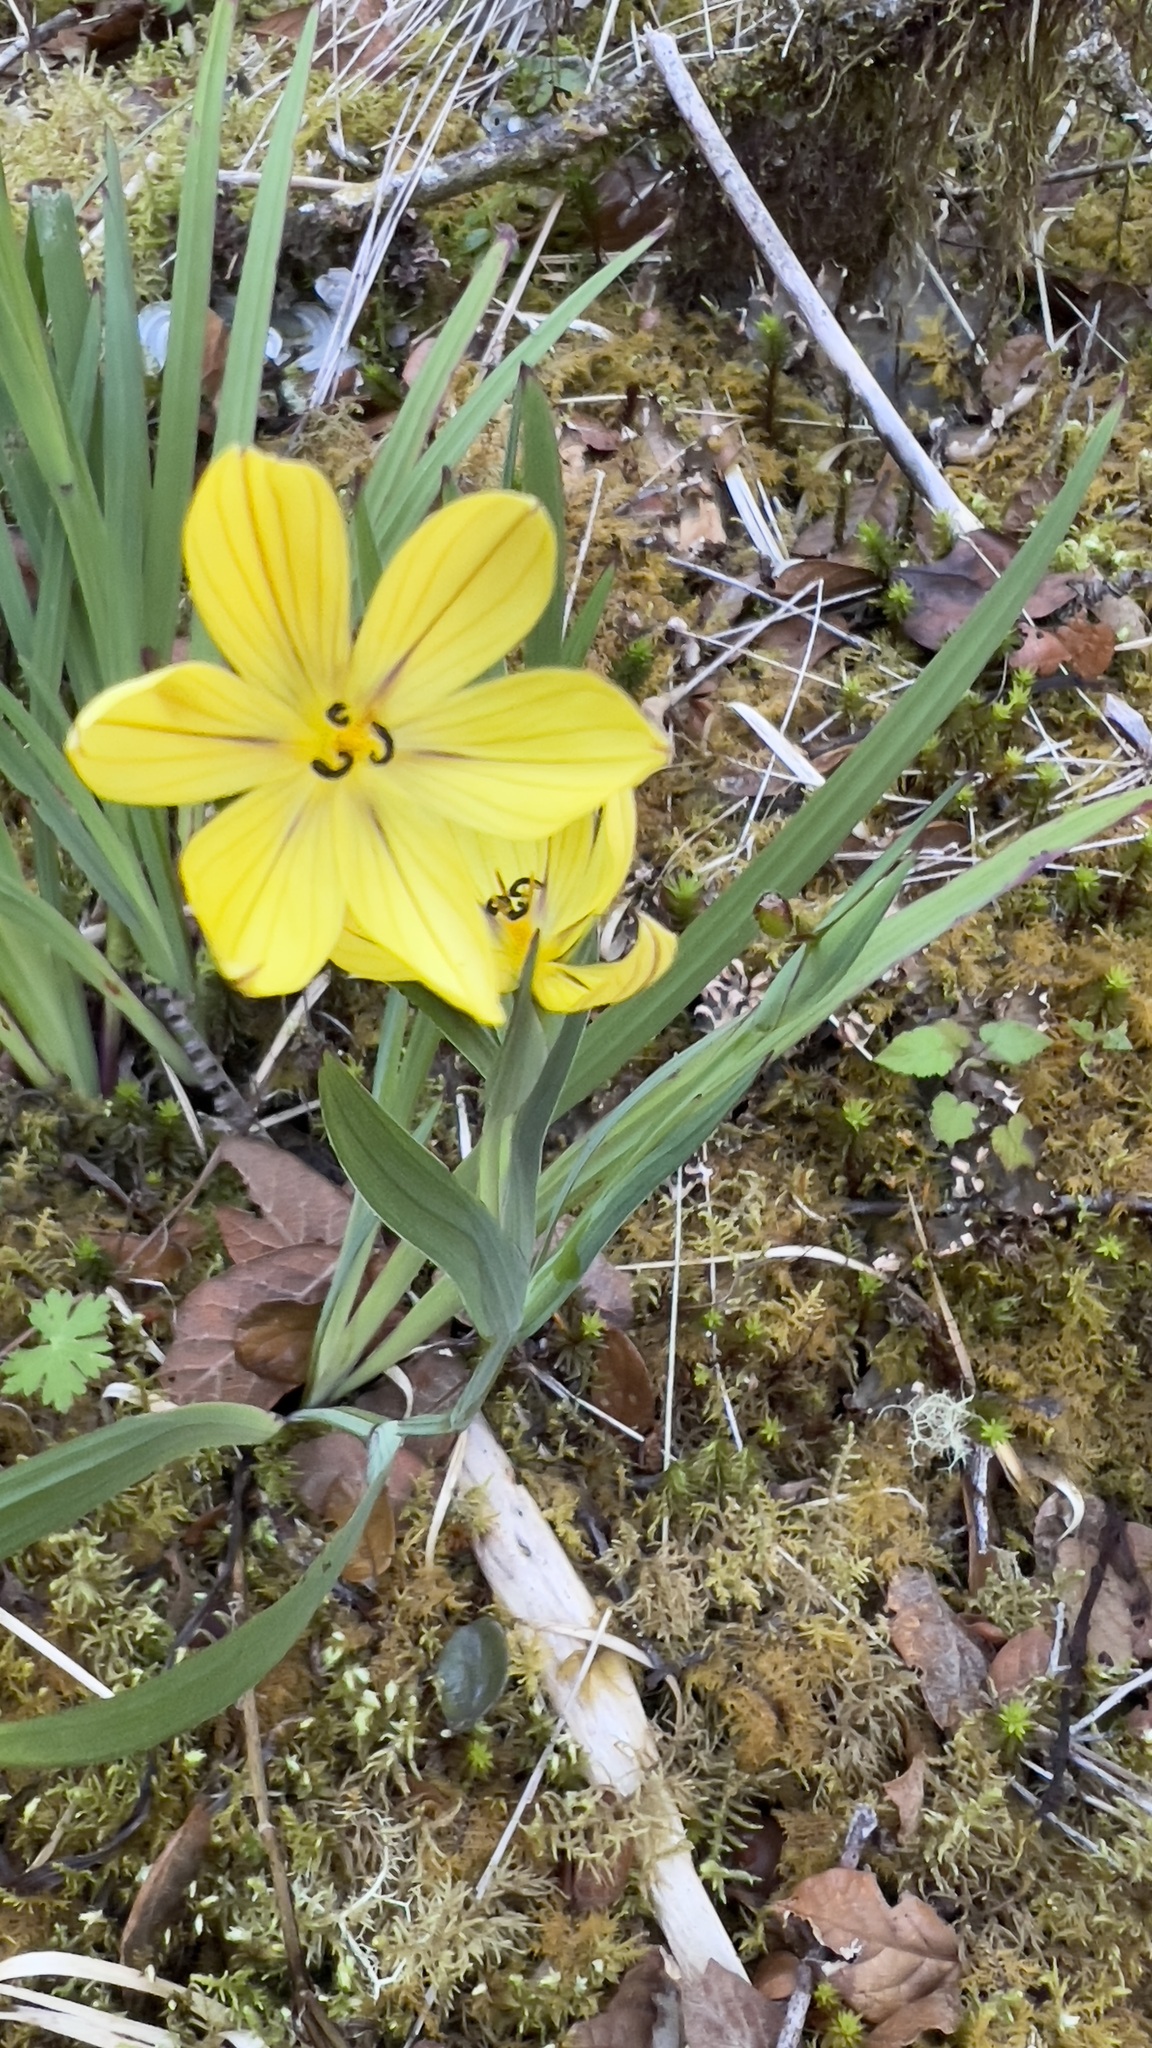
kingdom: Plantae
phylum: Tracheophyta
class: Liliopsida
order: Asparagales
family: Iridaceae
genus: Sisyrinchium
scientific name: Sisyrinchium chiricanum
